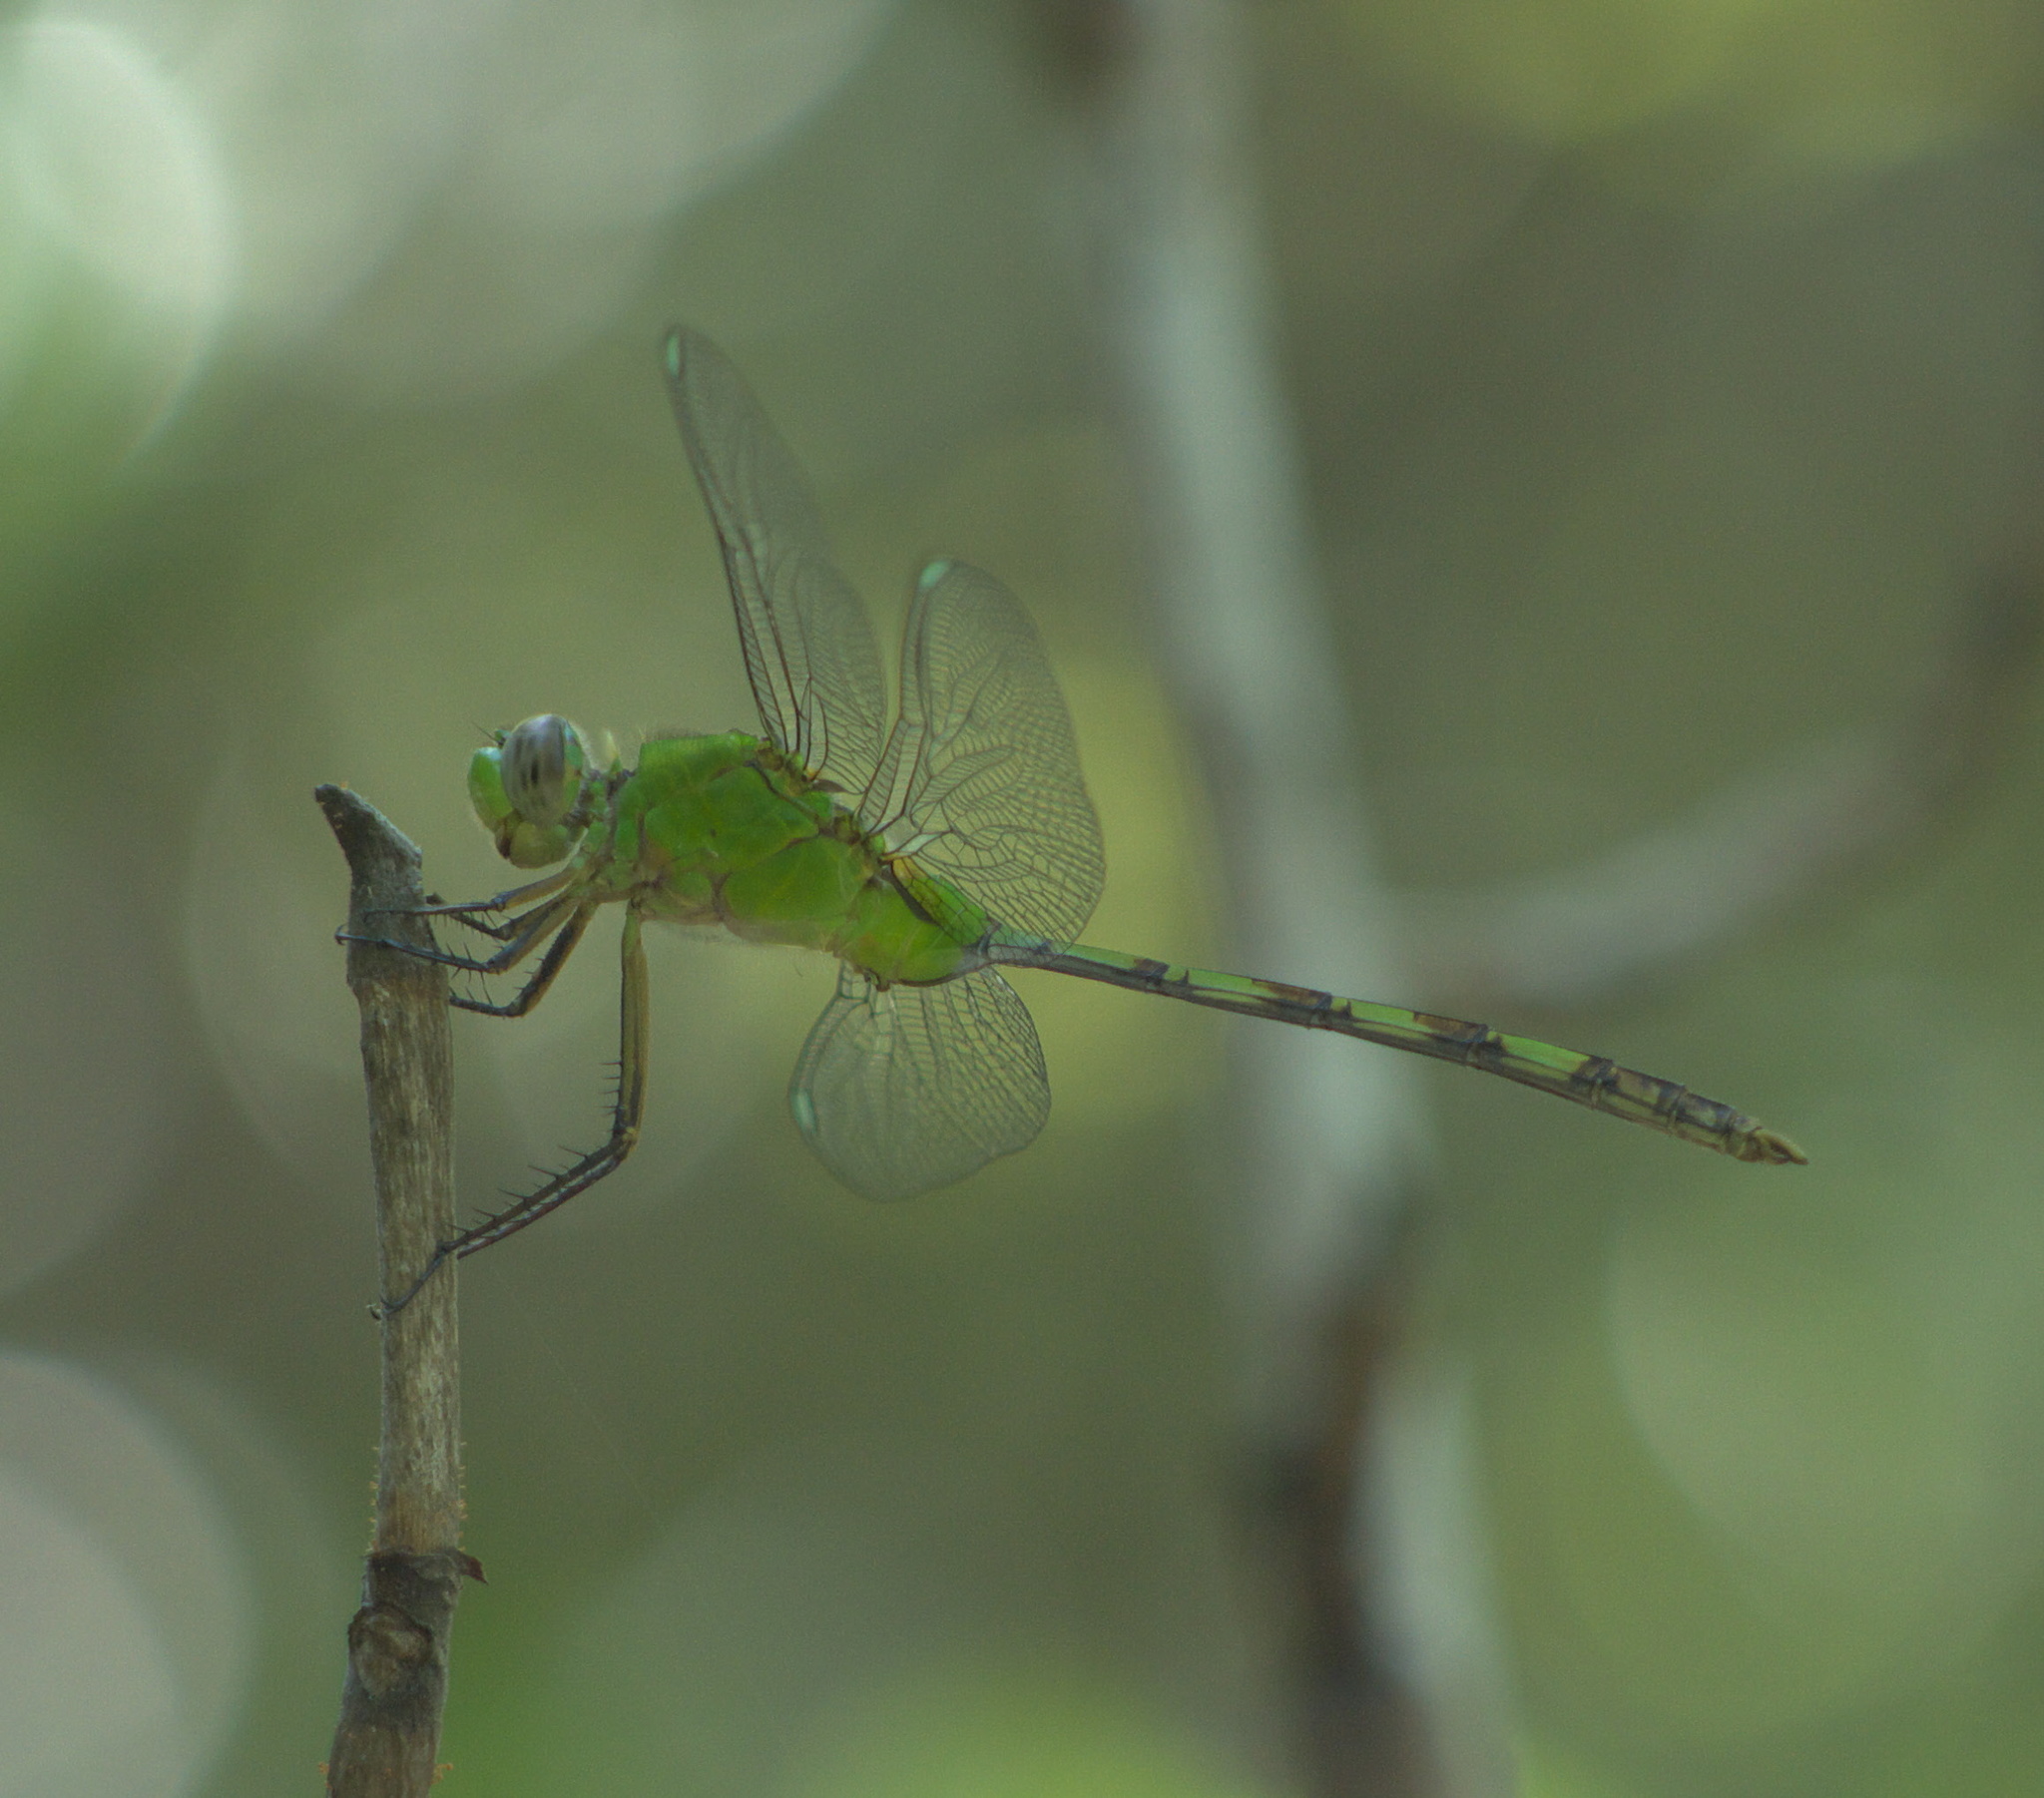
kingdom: Animalia
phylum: Arthropoda
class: Insecta
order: Odonata
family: Libellulidae
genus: Erythemis
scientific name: Erythemis vesiculosa
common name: Great pondhawk
